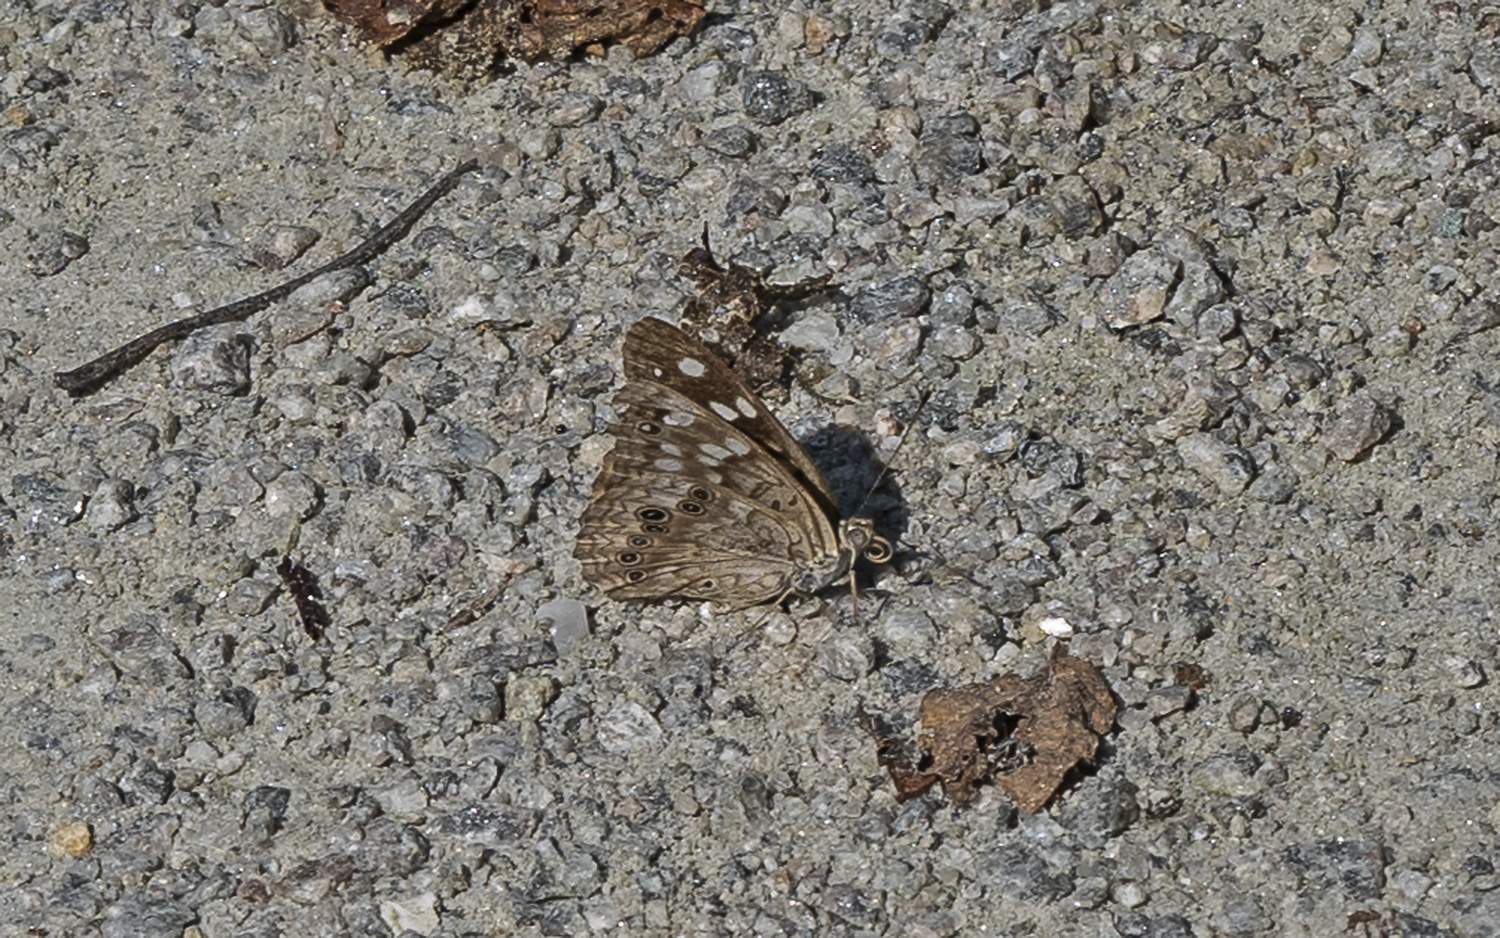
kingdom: Animalia
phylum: Arthropoda
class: Insecta
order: Lepidoptera
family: Nymphalidae
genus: Asterocampa
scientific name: Asterocampa celtis
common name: Hackberry emperor
